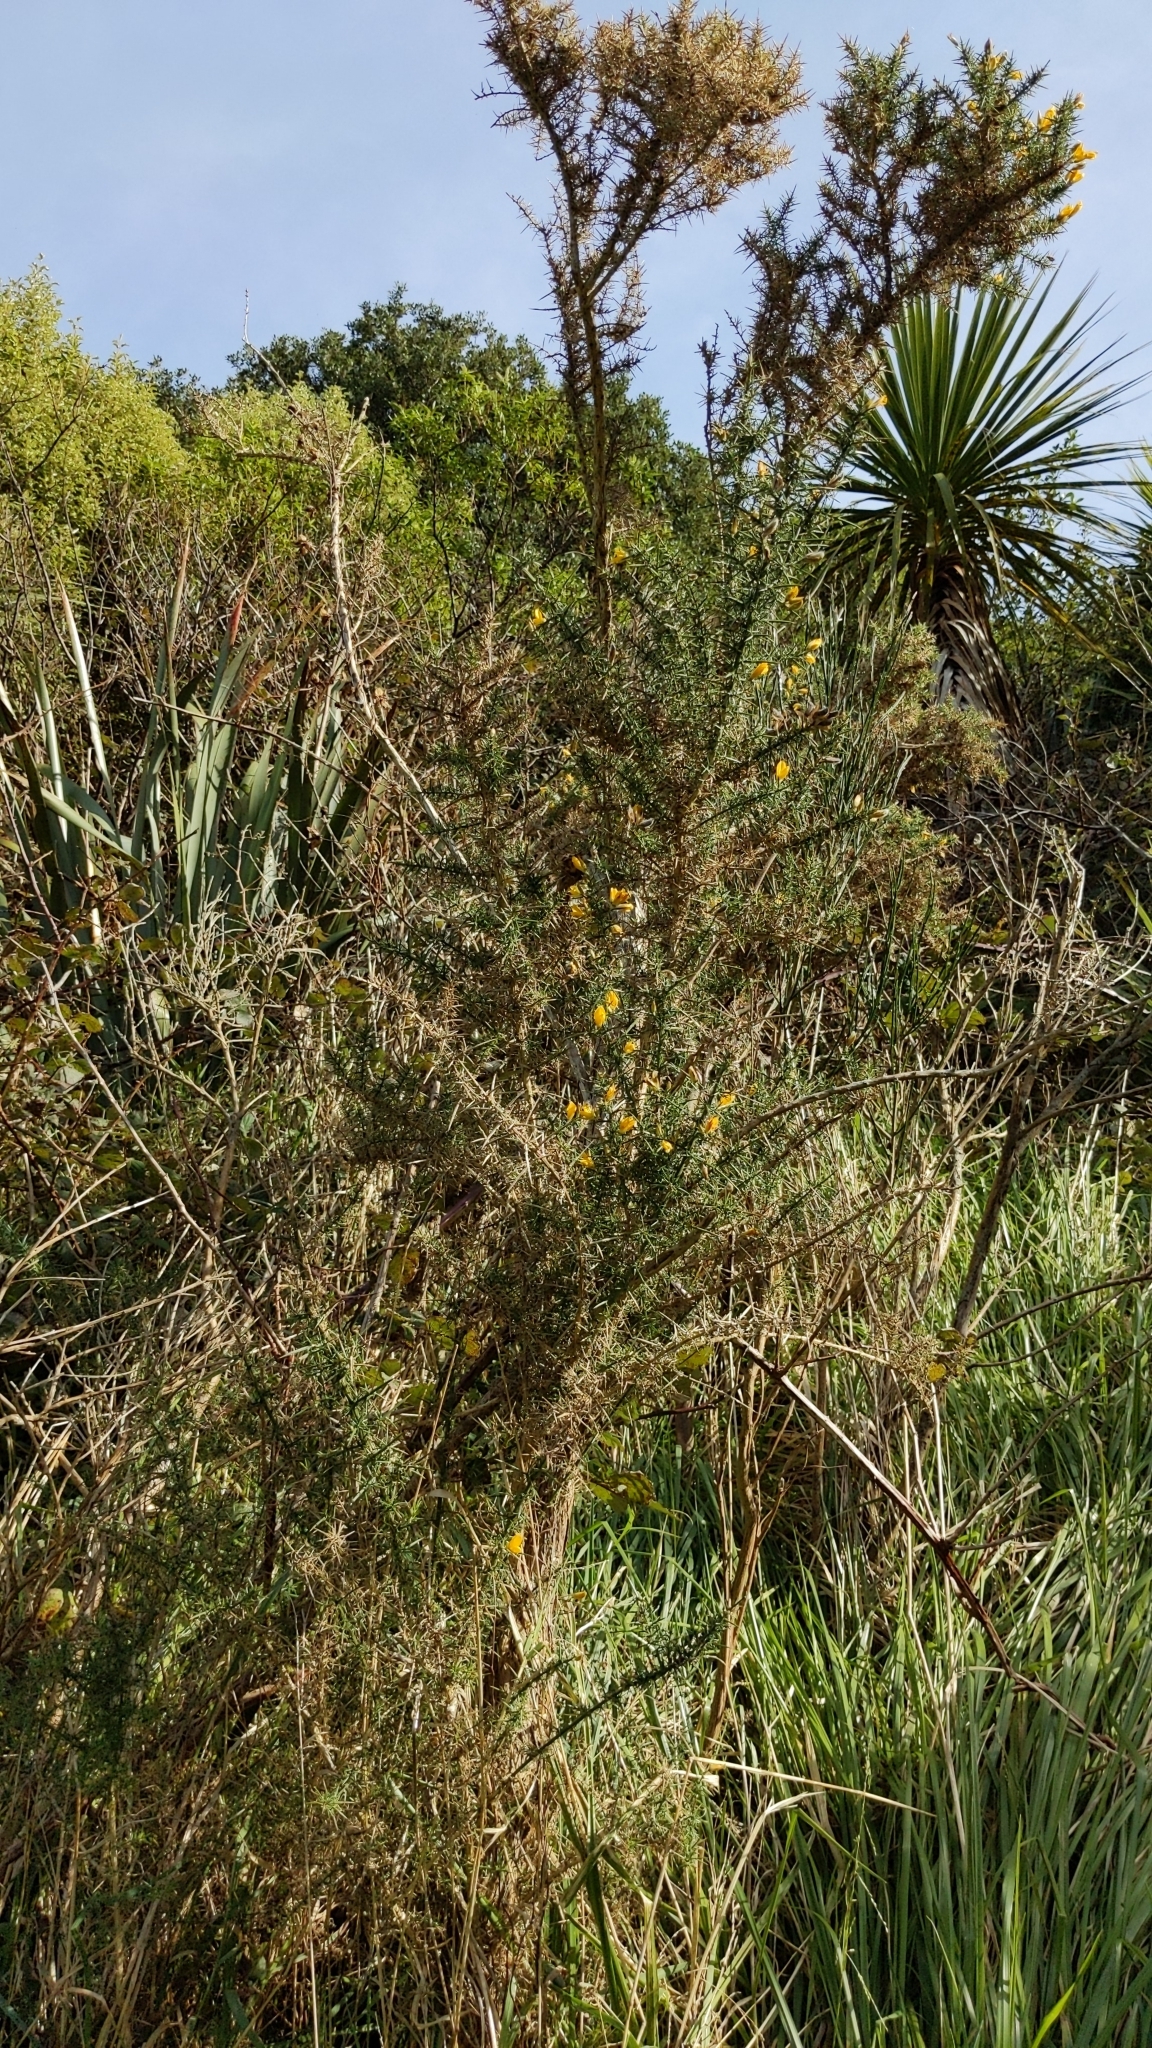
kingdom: Plantae
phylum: Tracheophyta
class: Magnoliopsida
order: Fabales
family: Fabaceae
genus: Ulex
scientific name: Ulex europaeus
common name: Common gorse
